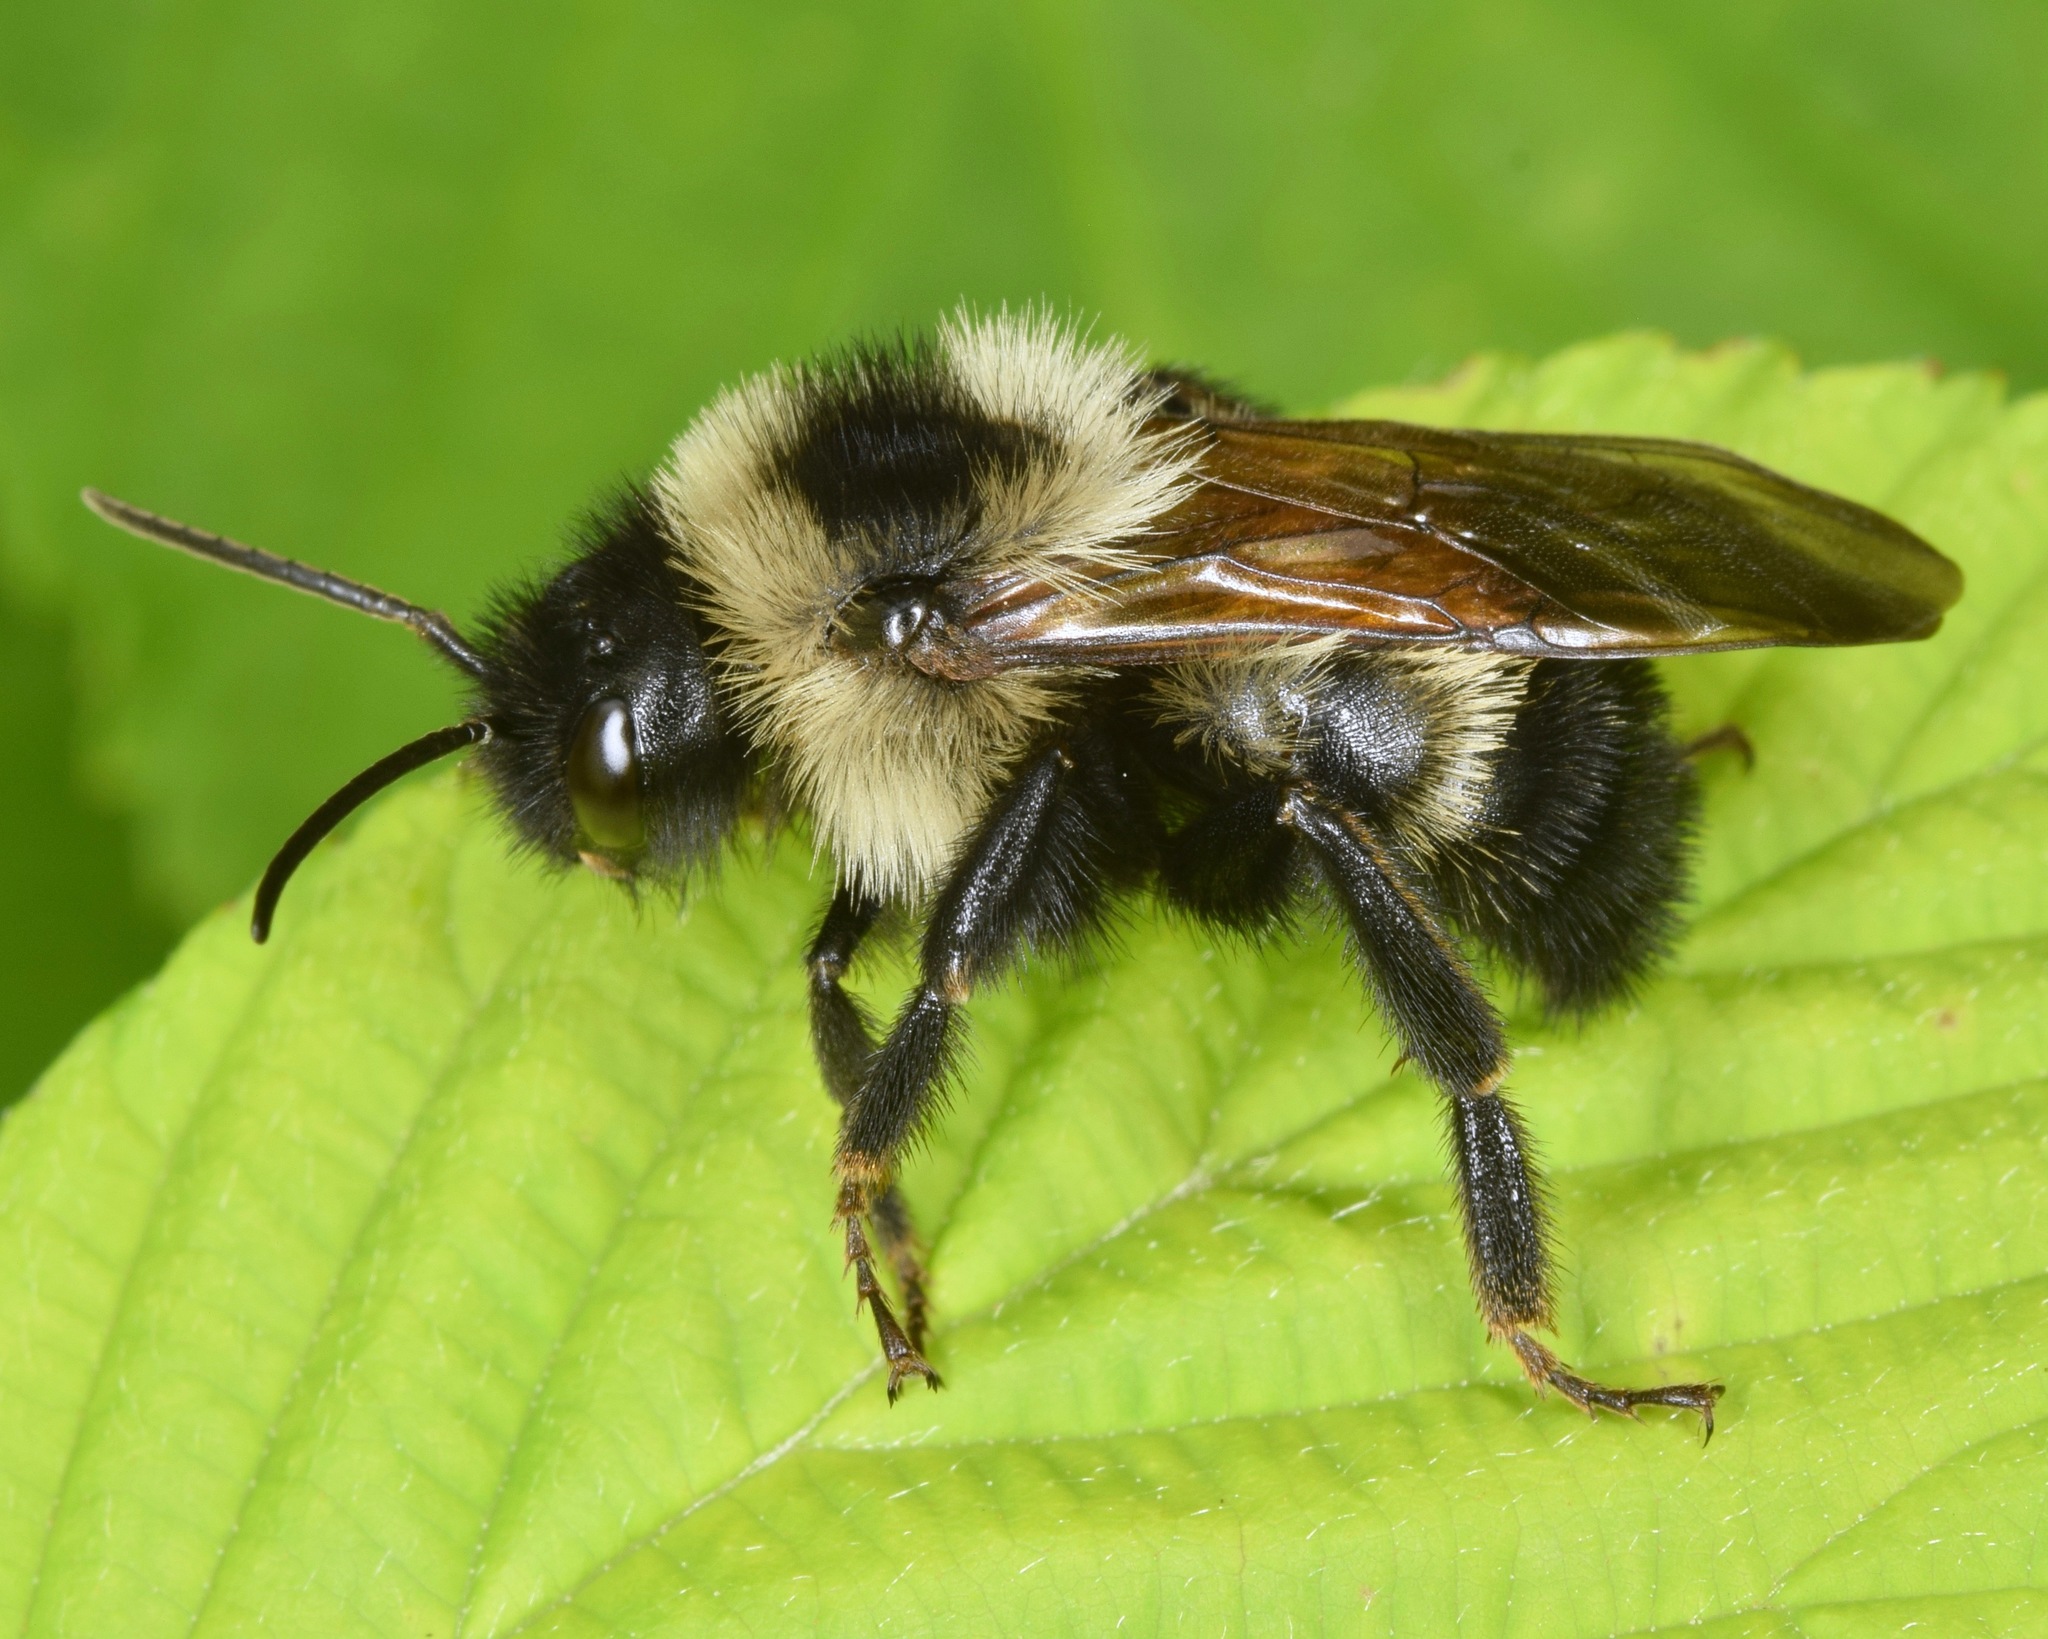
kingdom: Animalia
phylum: Arthropoda
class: Insecta
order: Hymenoptera
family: Apidae
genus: Bombus
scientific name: Bombus citrinus
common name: Lemon cuckoo bumble bee
